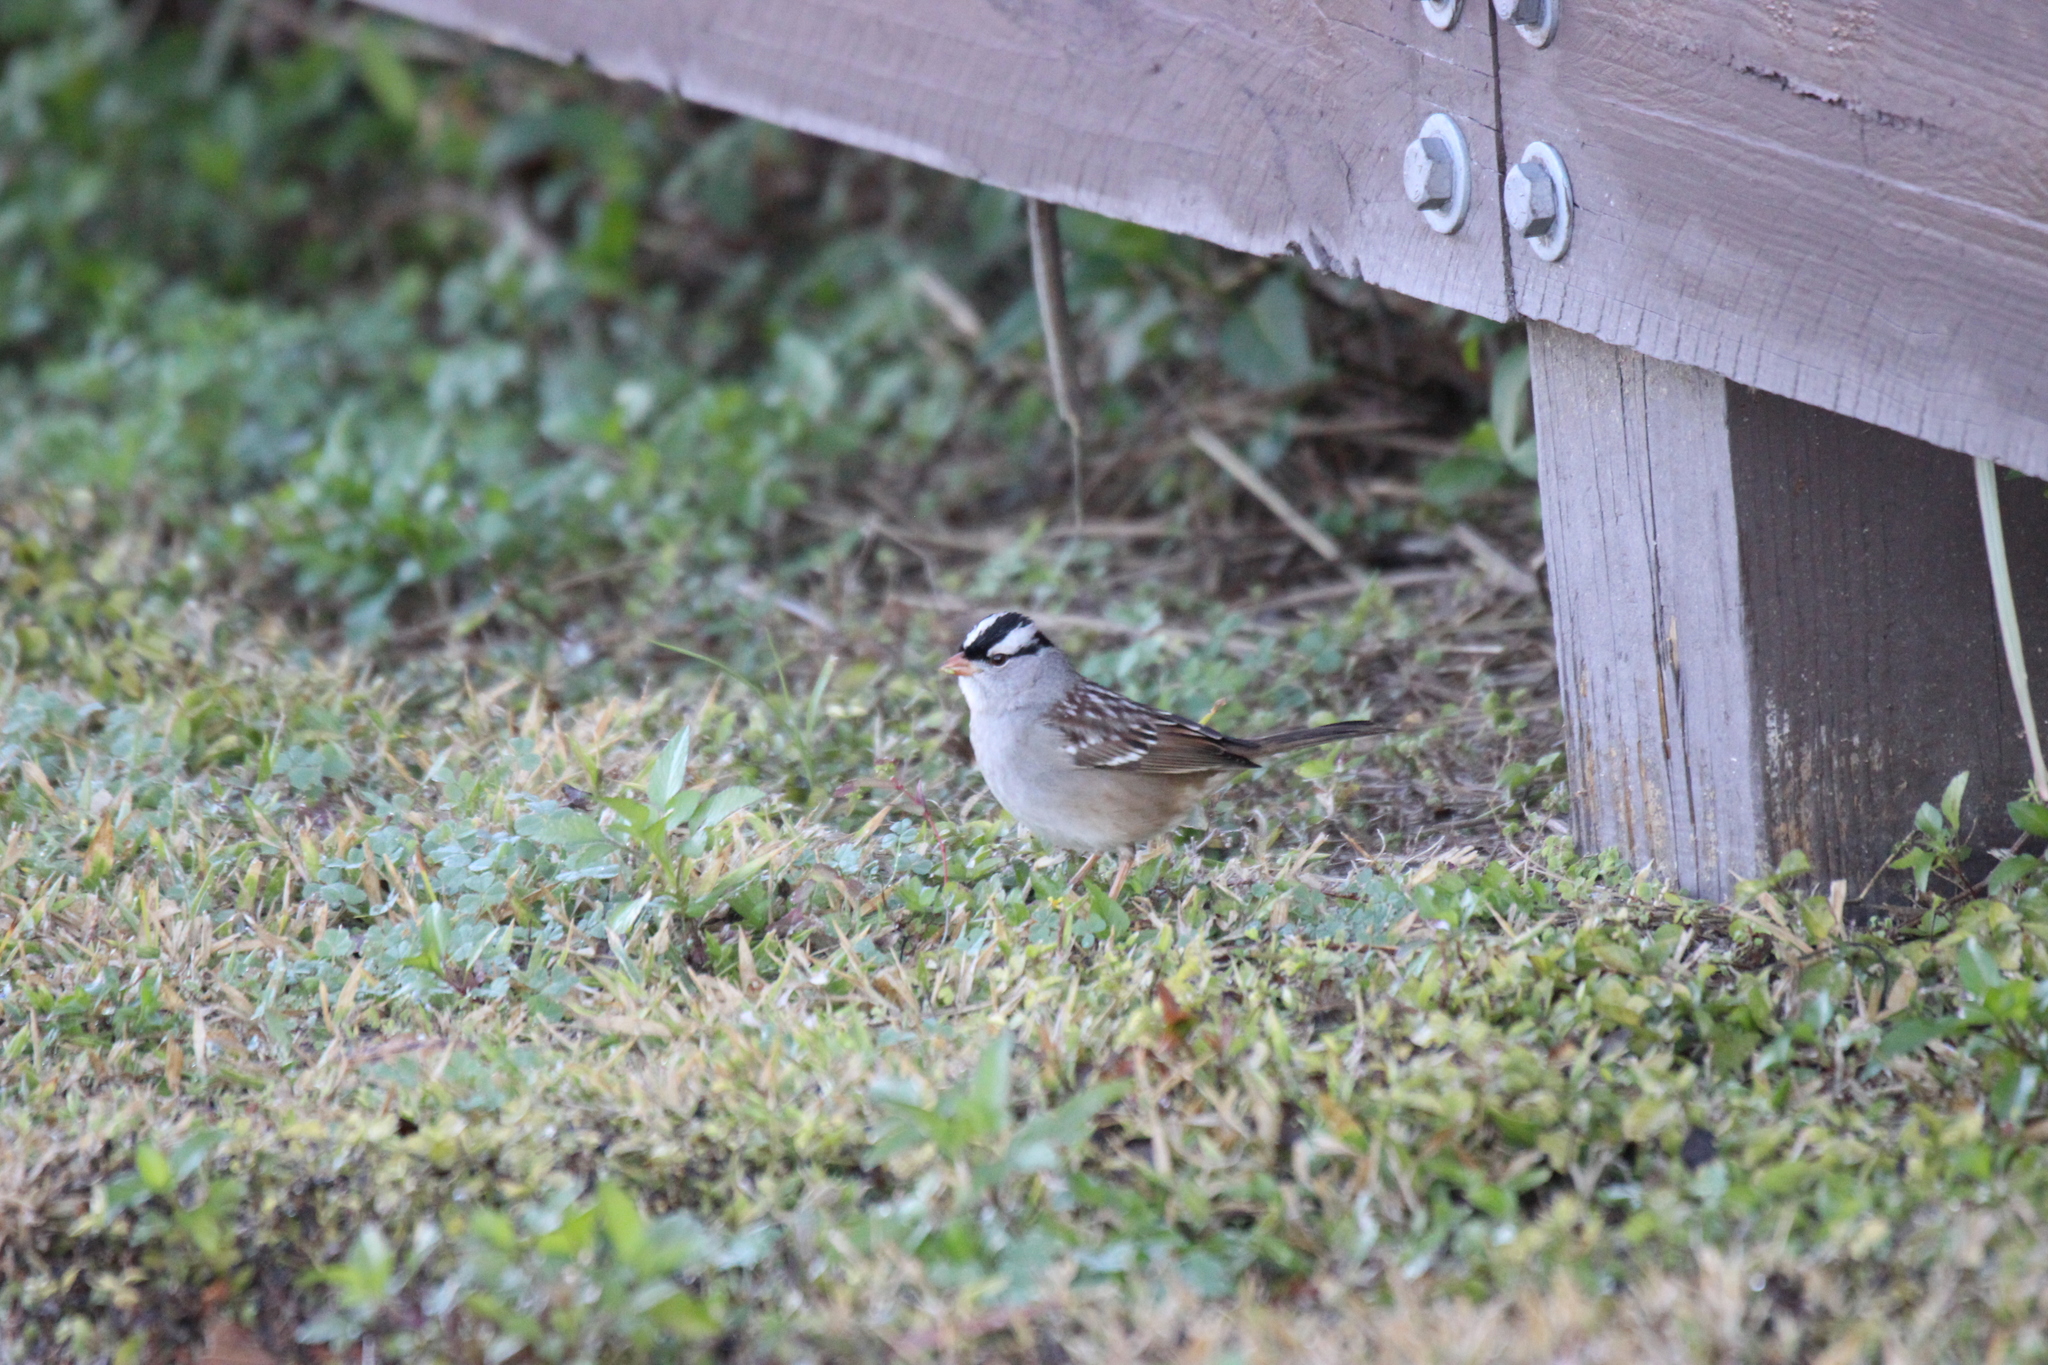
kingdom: Animalia
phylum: Chordata
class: Aves
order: Passeriformes
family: Passerellidae
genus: Zonotrichia
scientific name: Zonotrichia leucophrys
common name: White-crowned sparrow
